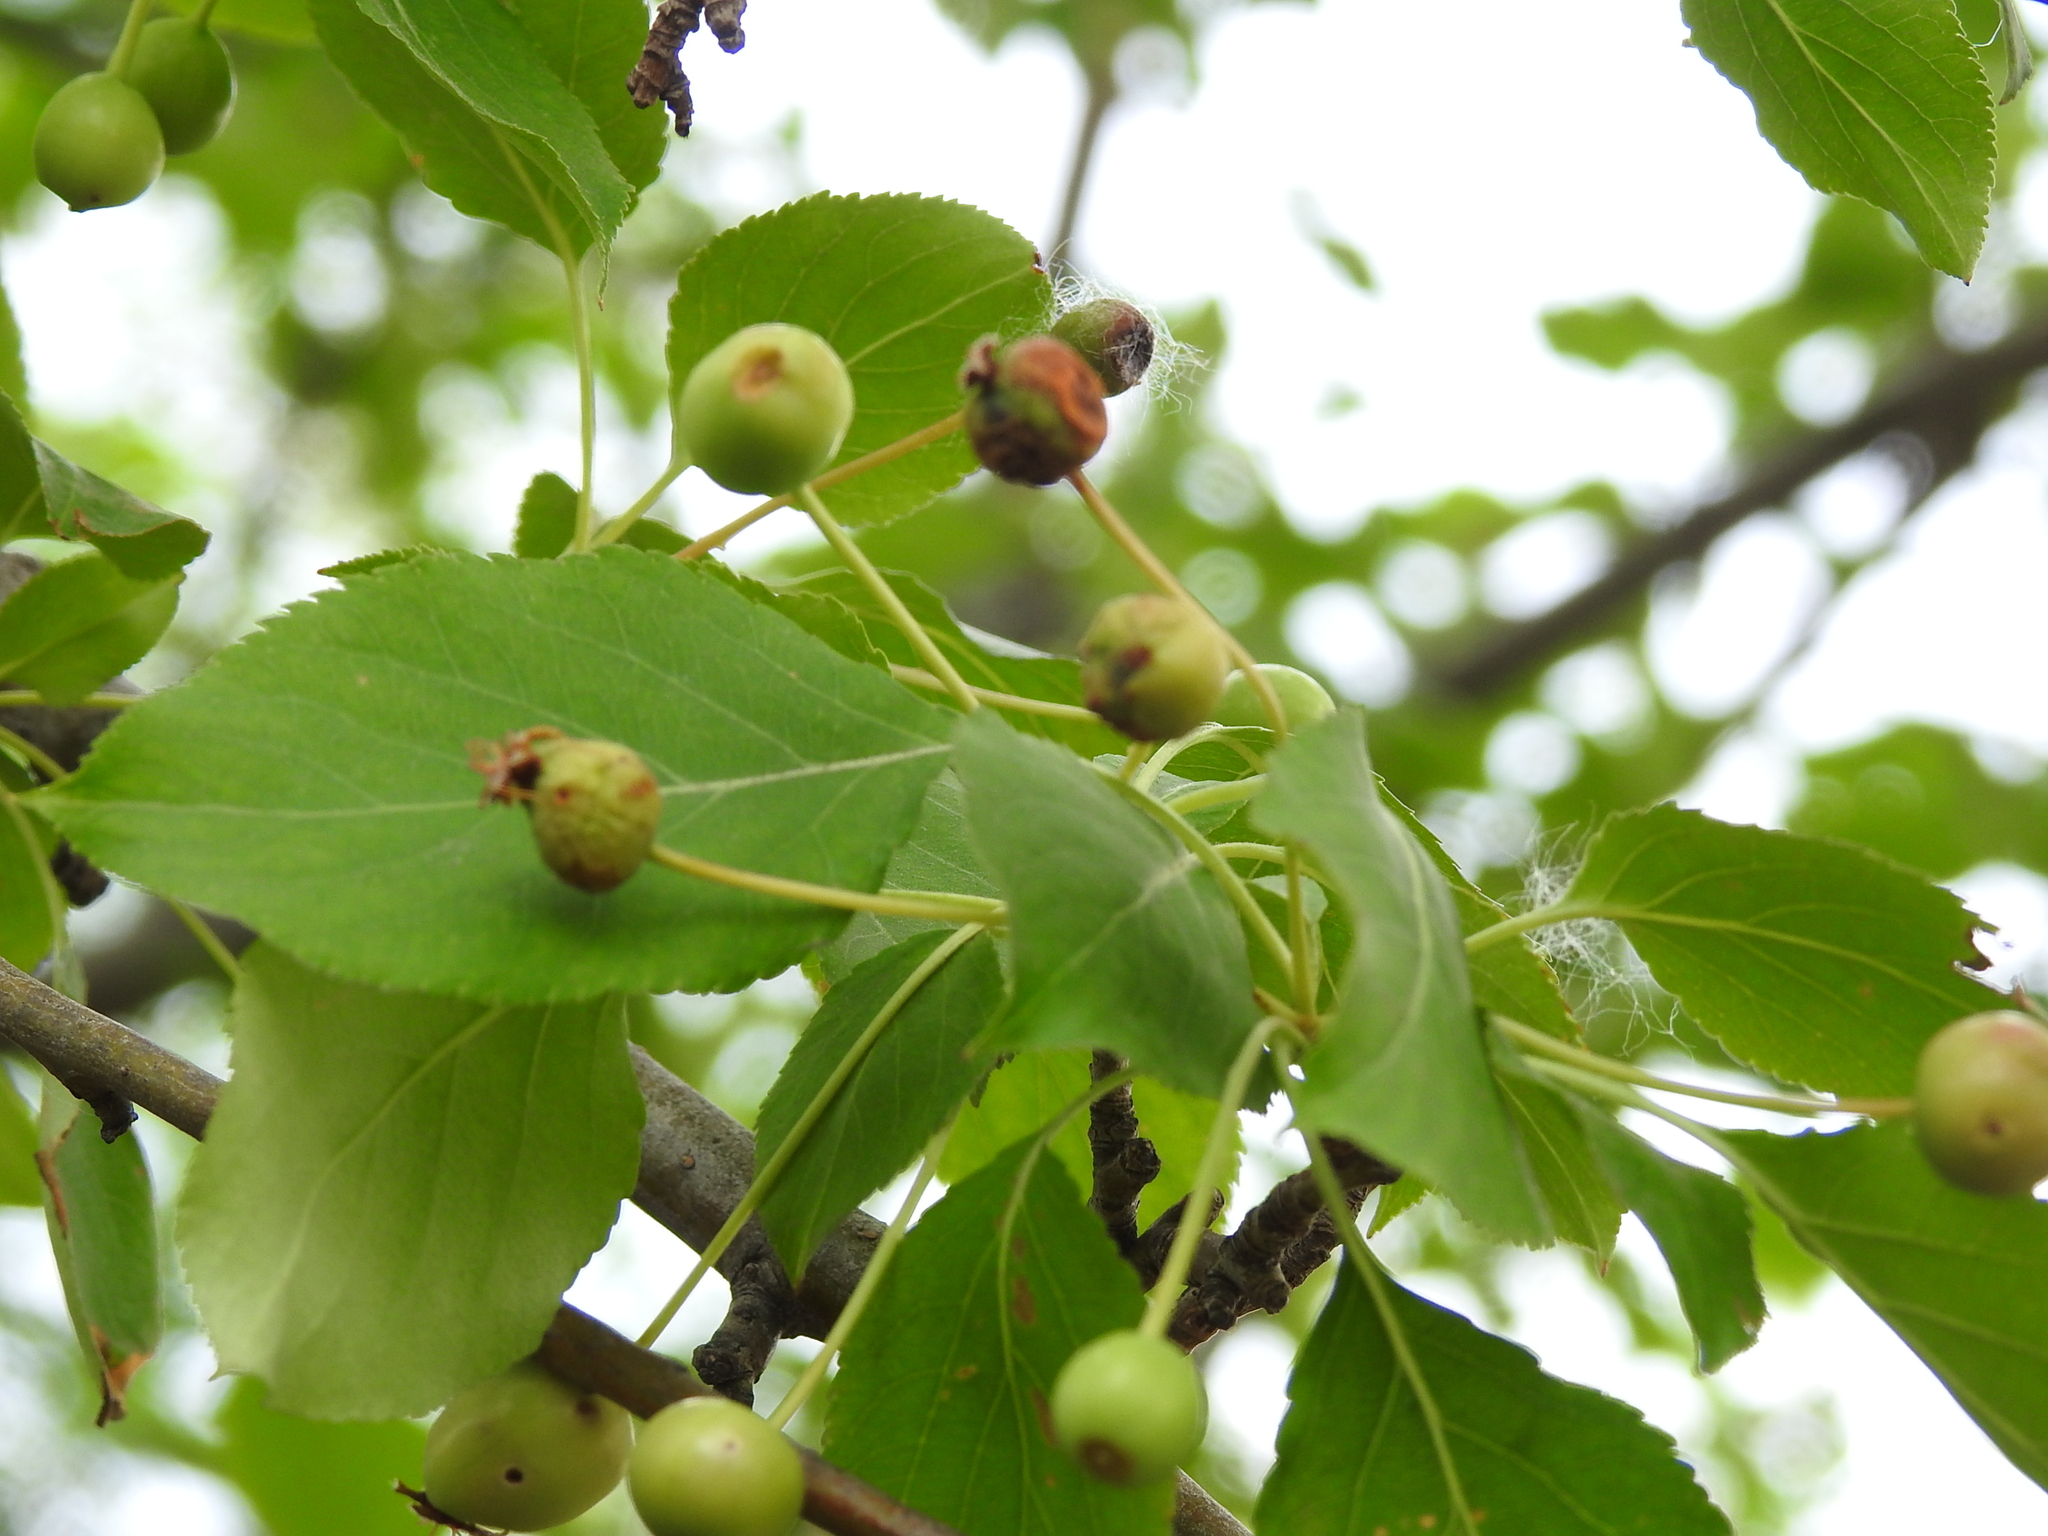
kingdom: Plantae
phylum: Tracheophyta
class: Magnoliopsida
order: Rosales
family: Rosaceae
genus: Malus
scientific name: Malus baccata
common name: Siberian crab
